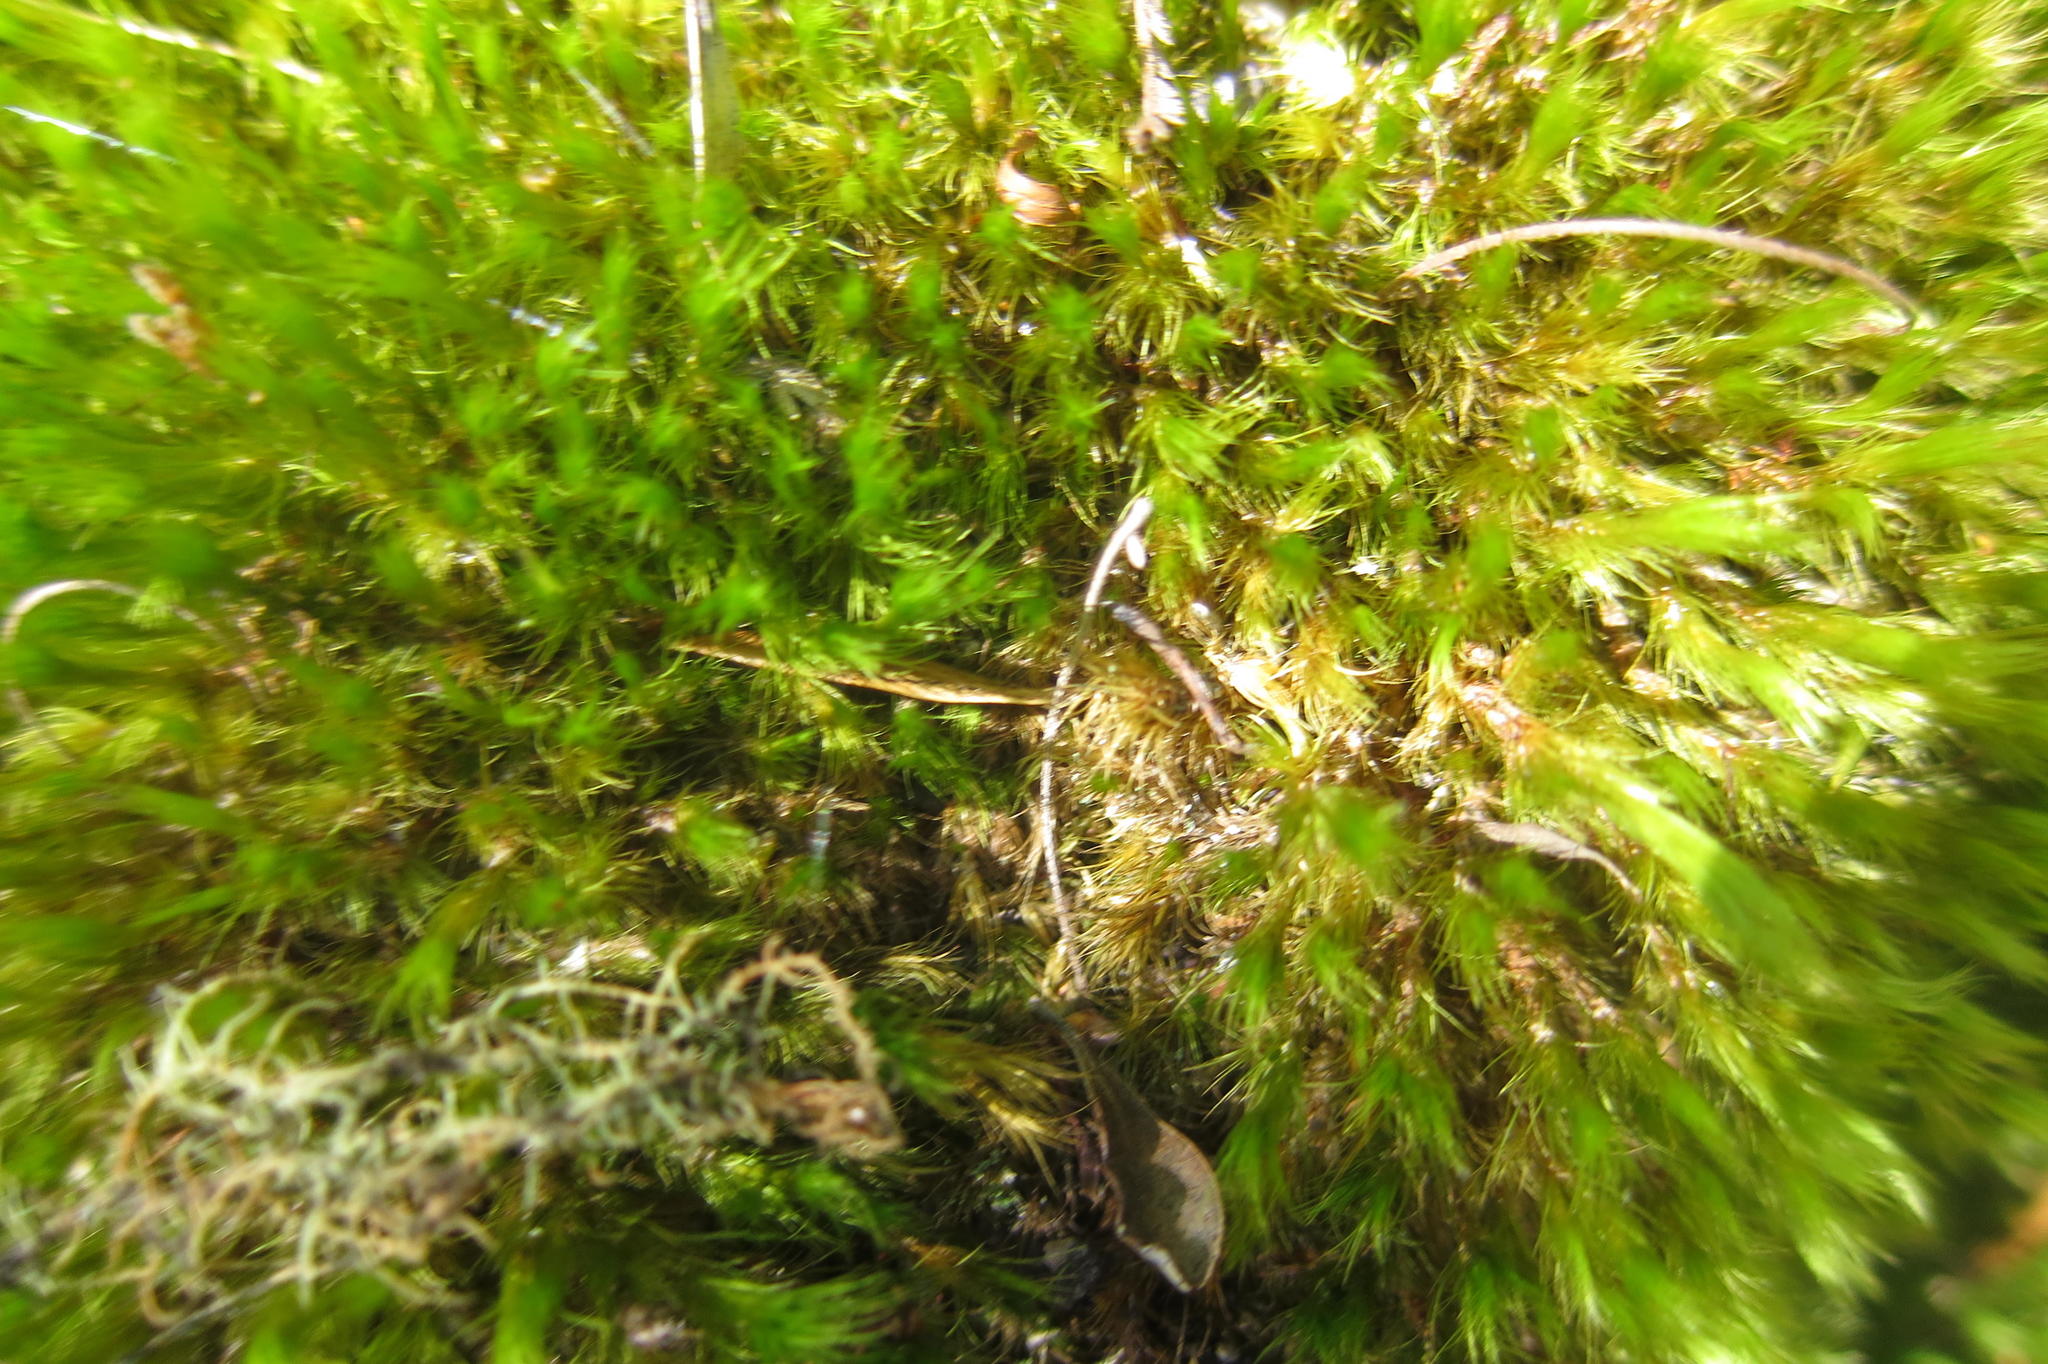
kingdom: Plantae
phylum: Bryophyta
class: Bryopsida
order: Rhizogoniales
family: Calomniaceae
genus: Pyrrhobryum
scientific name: Pyrrhobryum spiniforme
